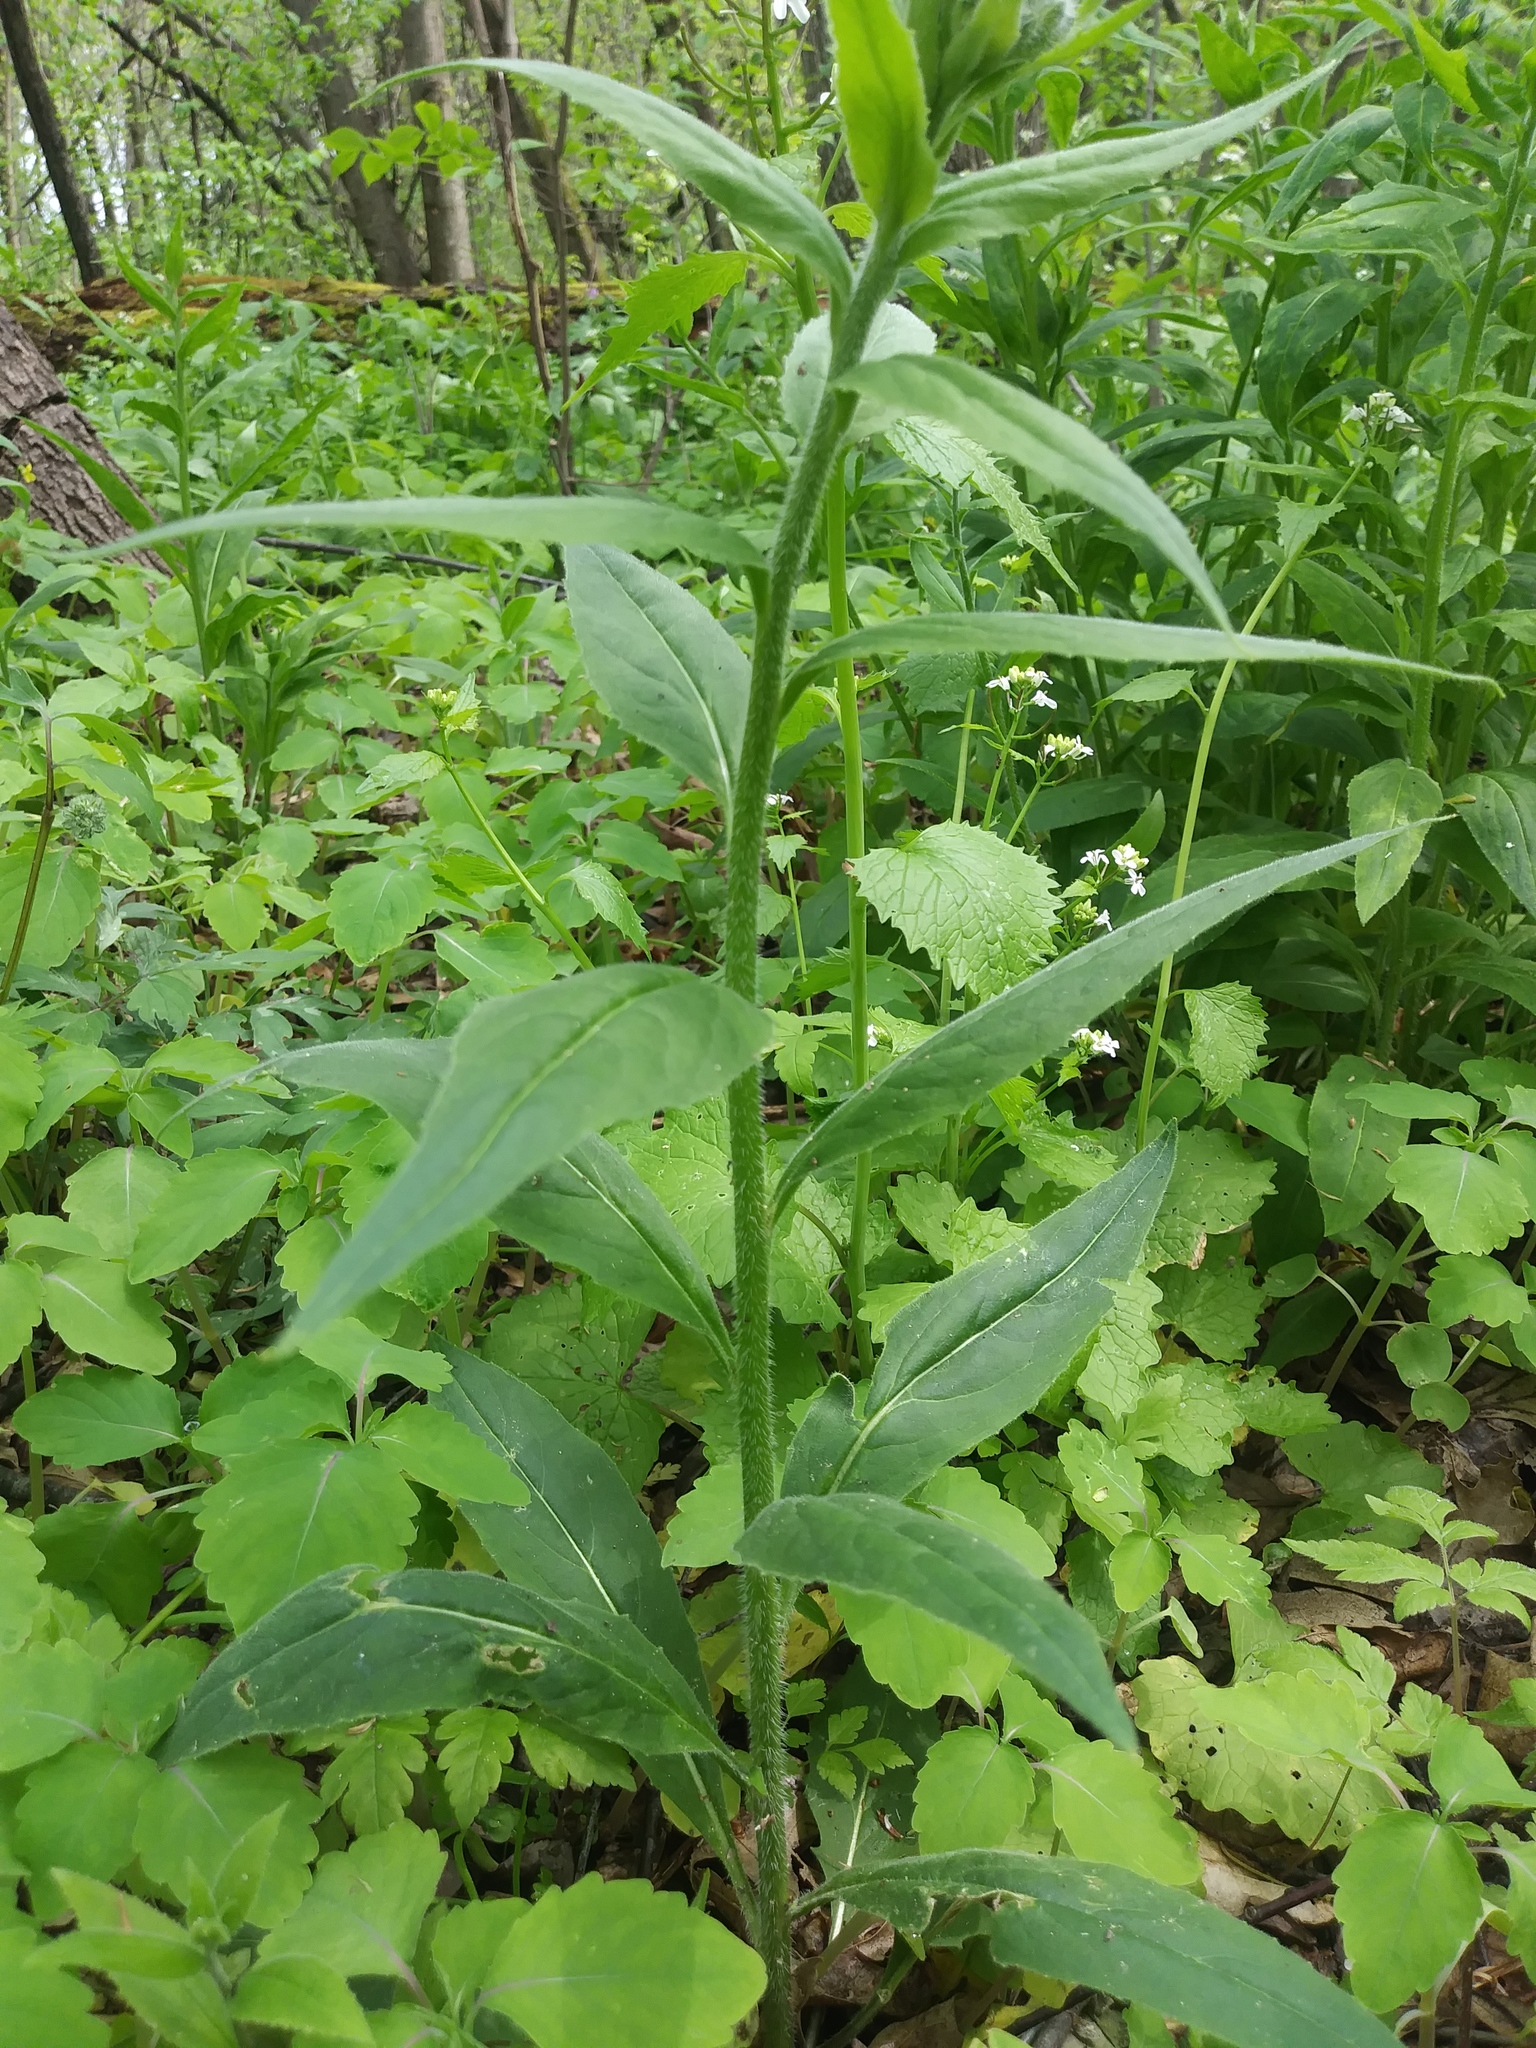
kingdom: Plantae
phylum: Tracheophyta
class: Magnoliopsida
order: Brassicales
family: Brassicaceae
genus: Hesperis
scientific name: Hesperis matronalis
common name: Dame's-violet
